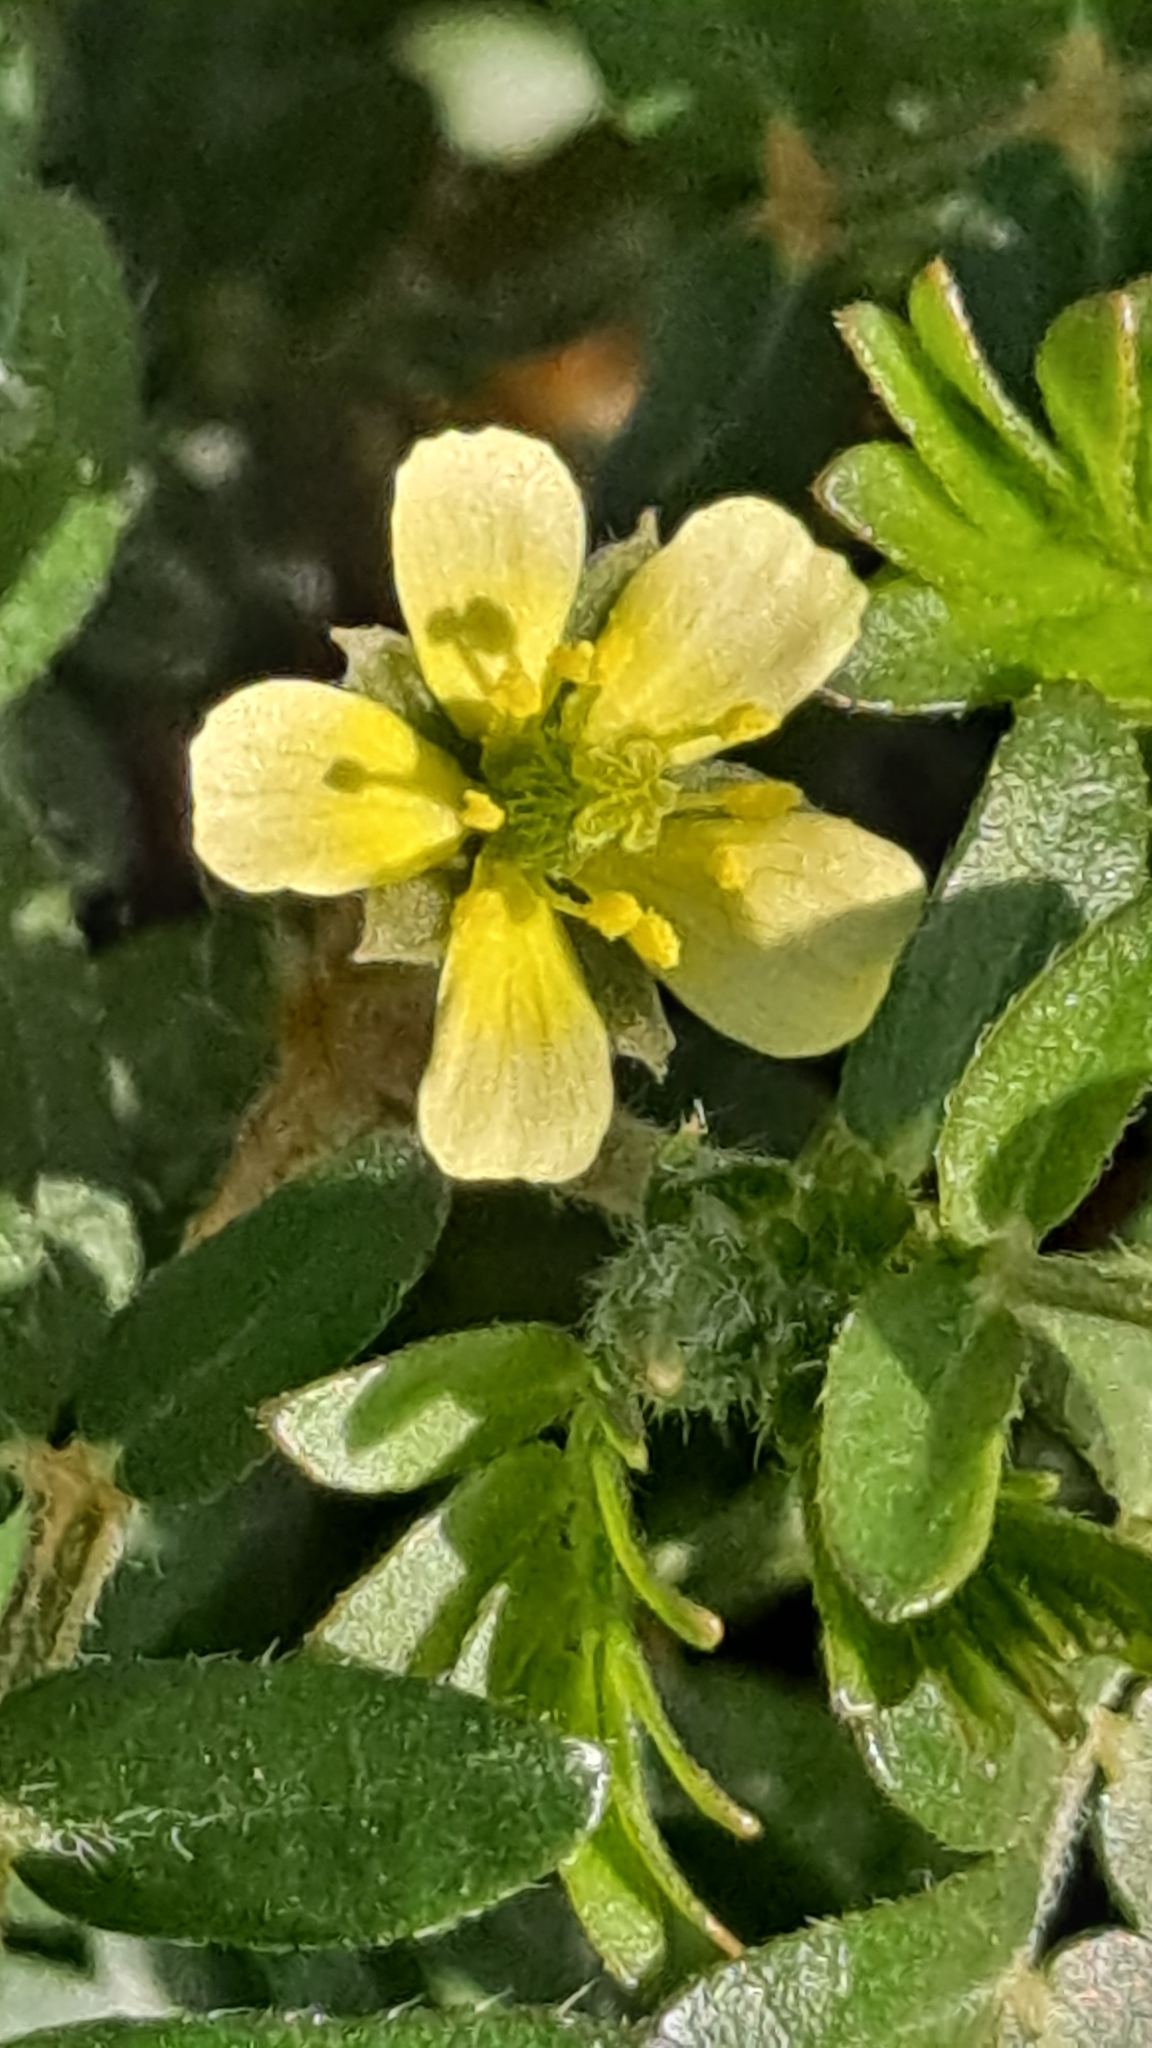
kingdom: Plantae
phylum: Tracheophyta
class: Magnoliopsida
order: Zygophyllales
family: Zygophyllaceae
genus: Tribulus
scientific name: Tribulus terrestris
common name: Puncturevine
